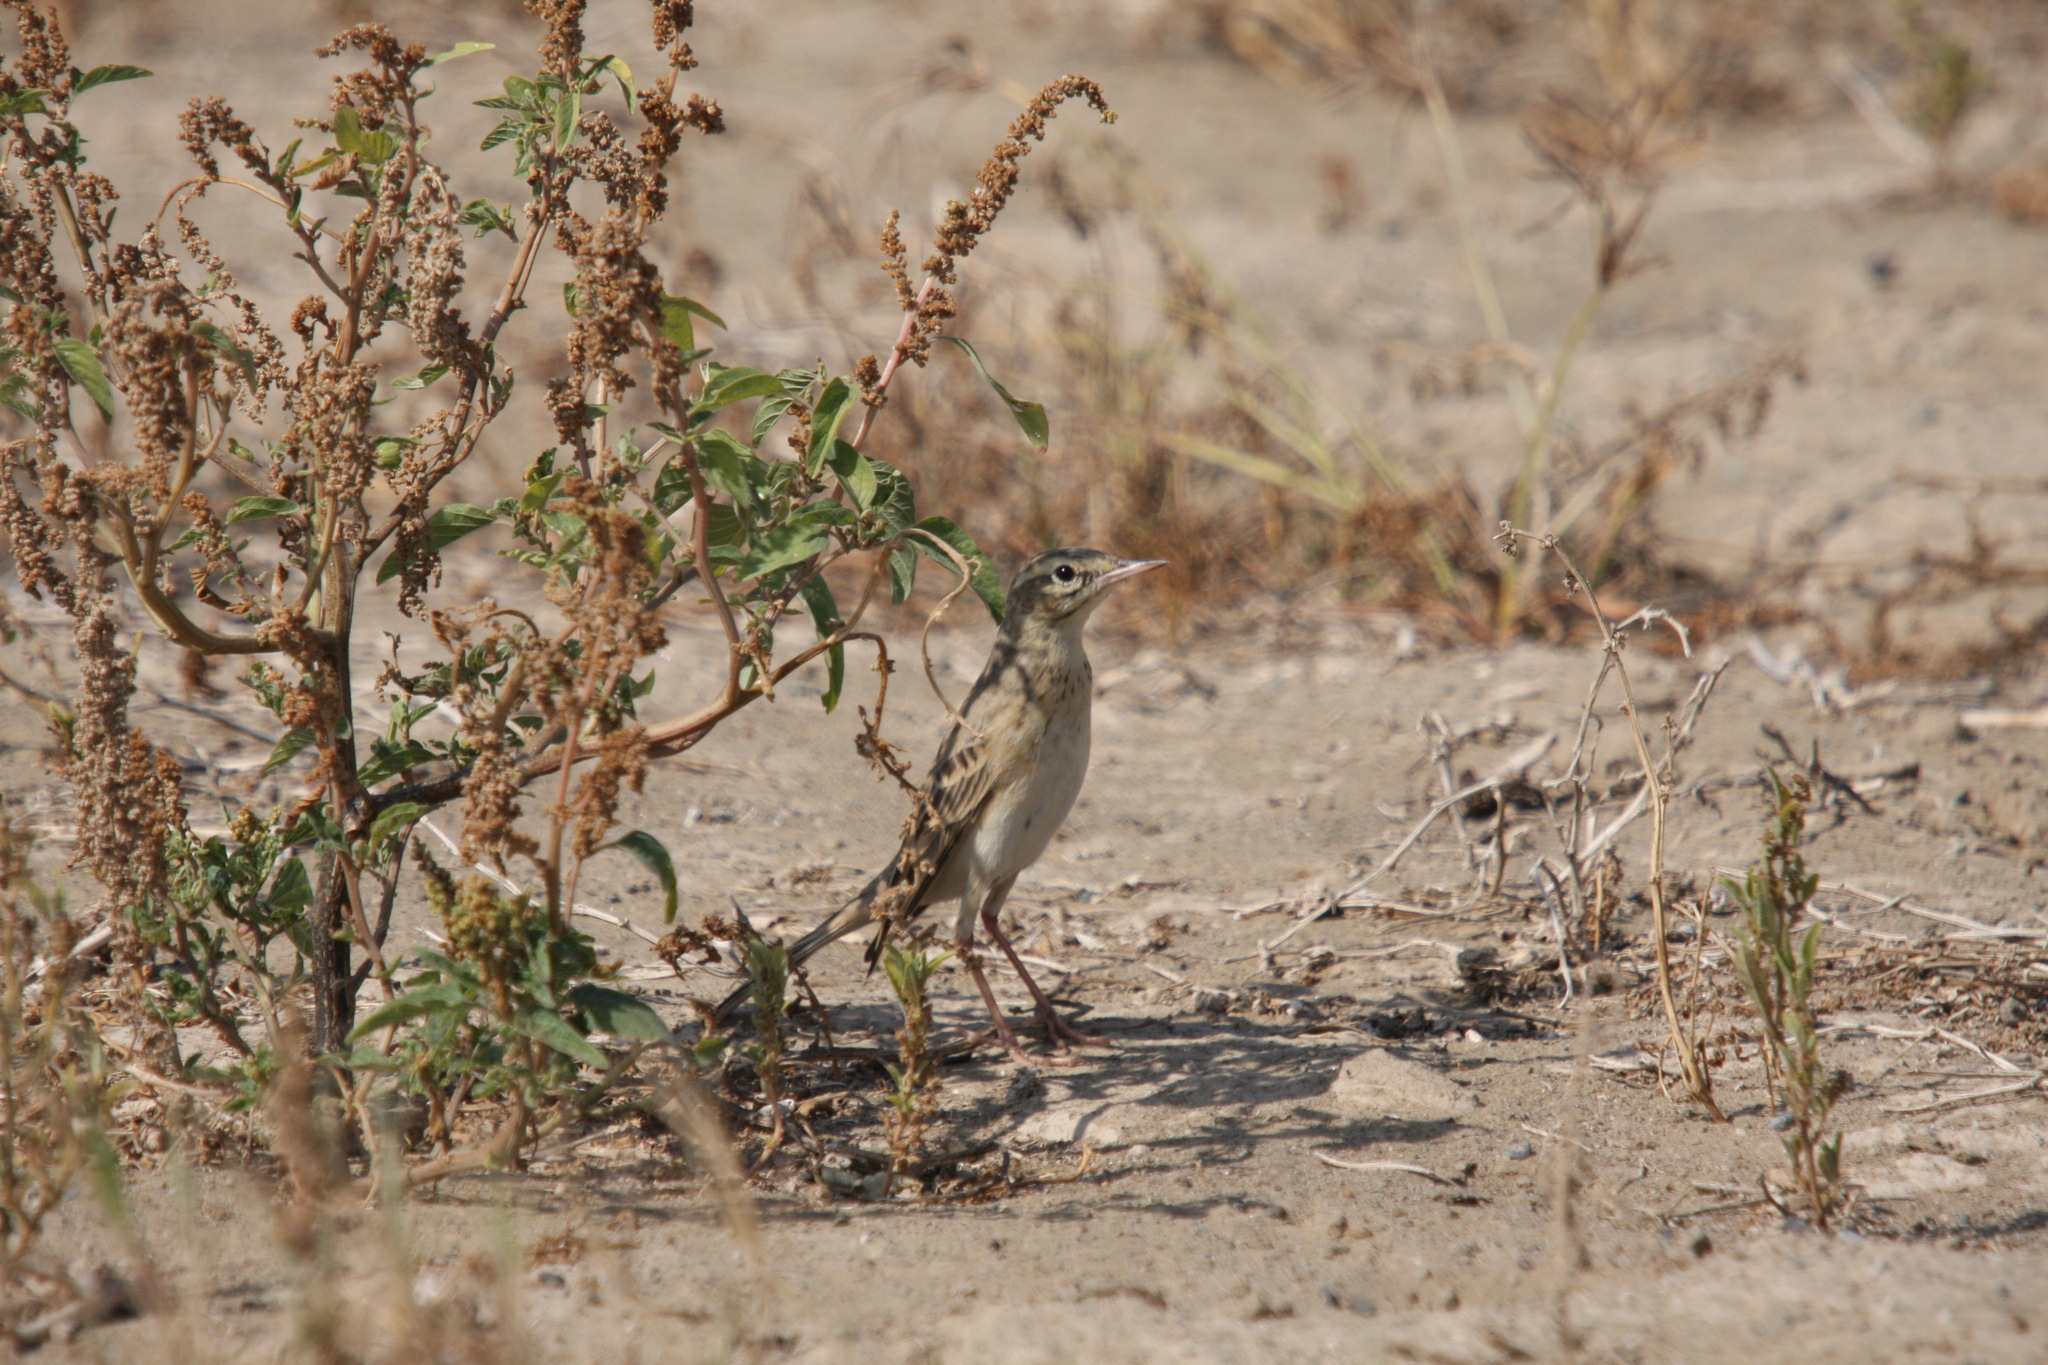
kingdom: Animalia
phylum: Chordata
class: Aves
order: Passeriformes
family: Motacillidae
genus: Anthus
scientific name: Anthus campestris
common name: Tawny pipit
